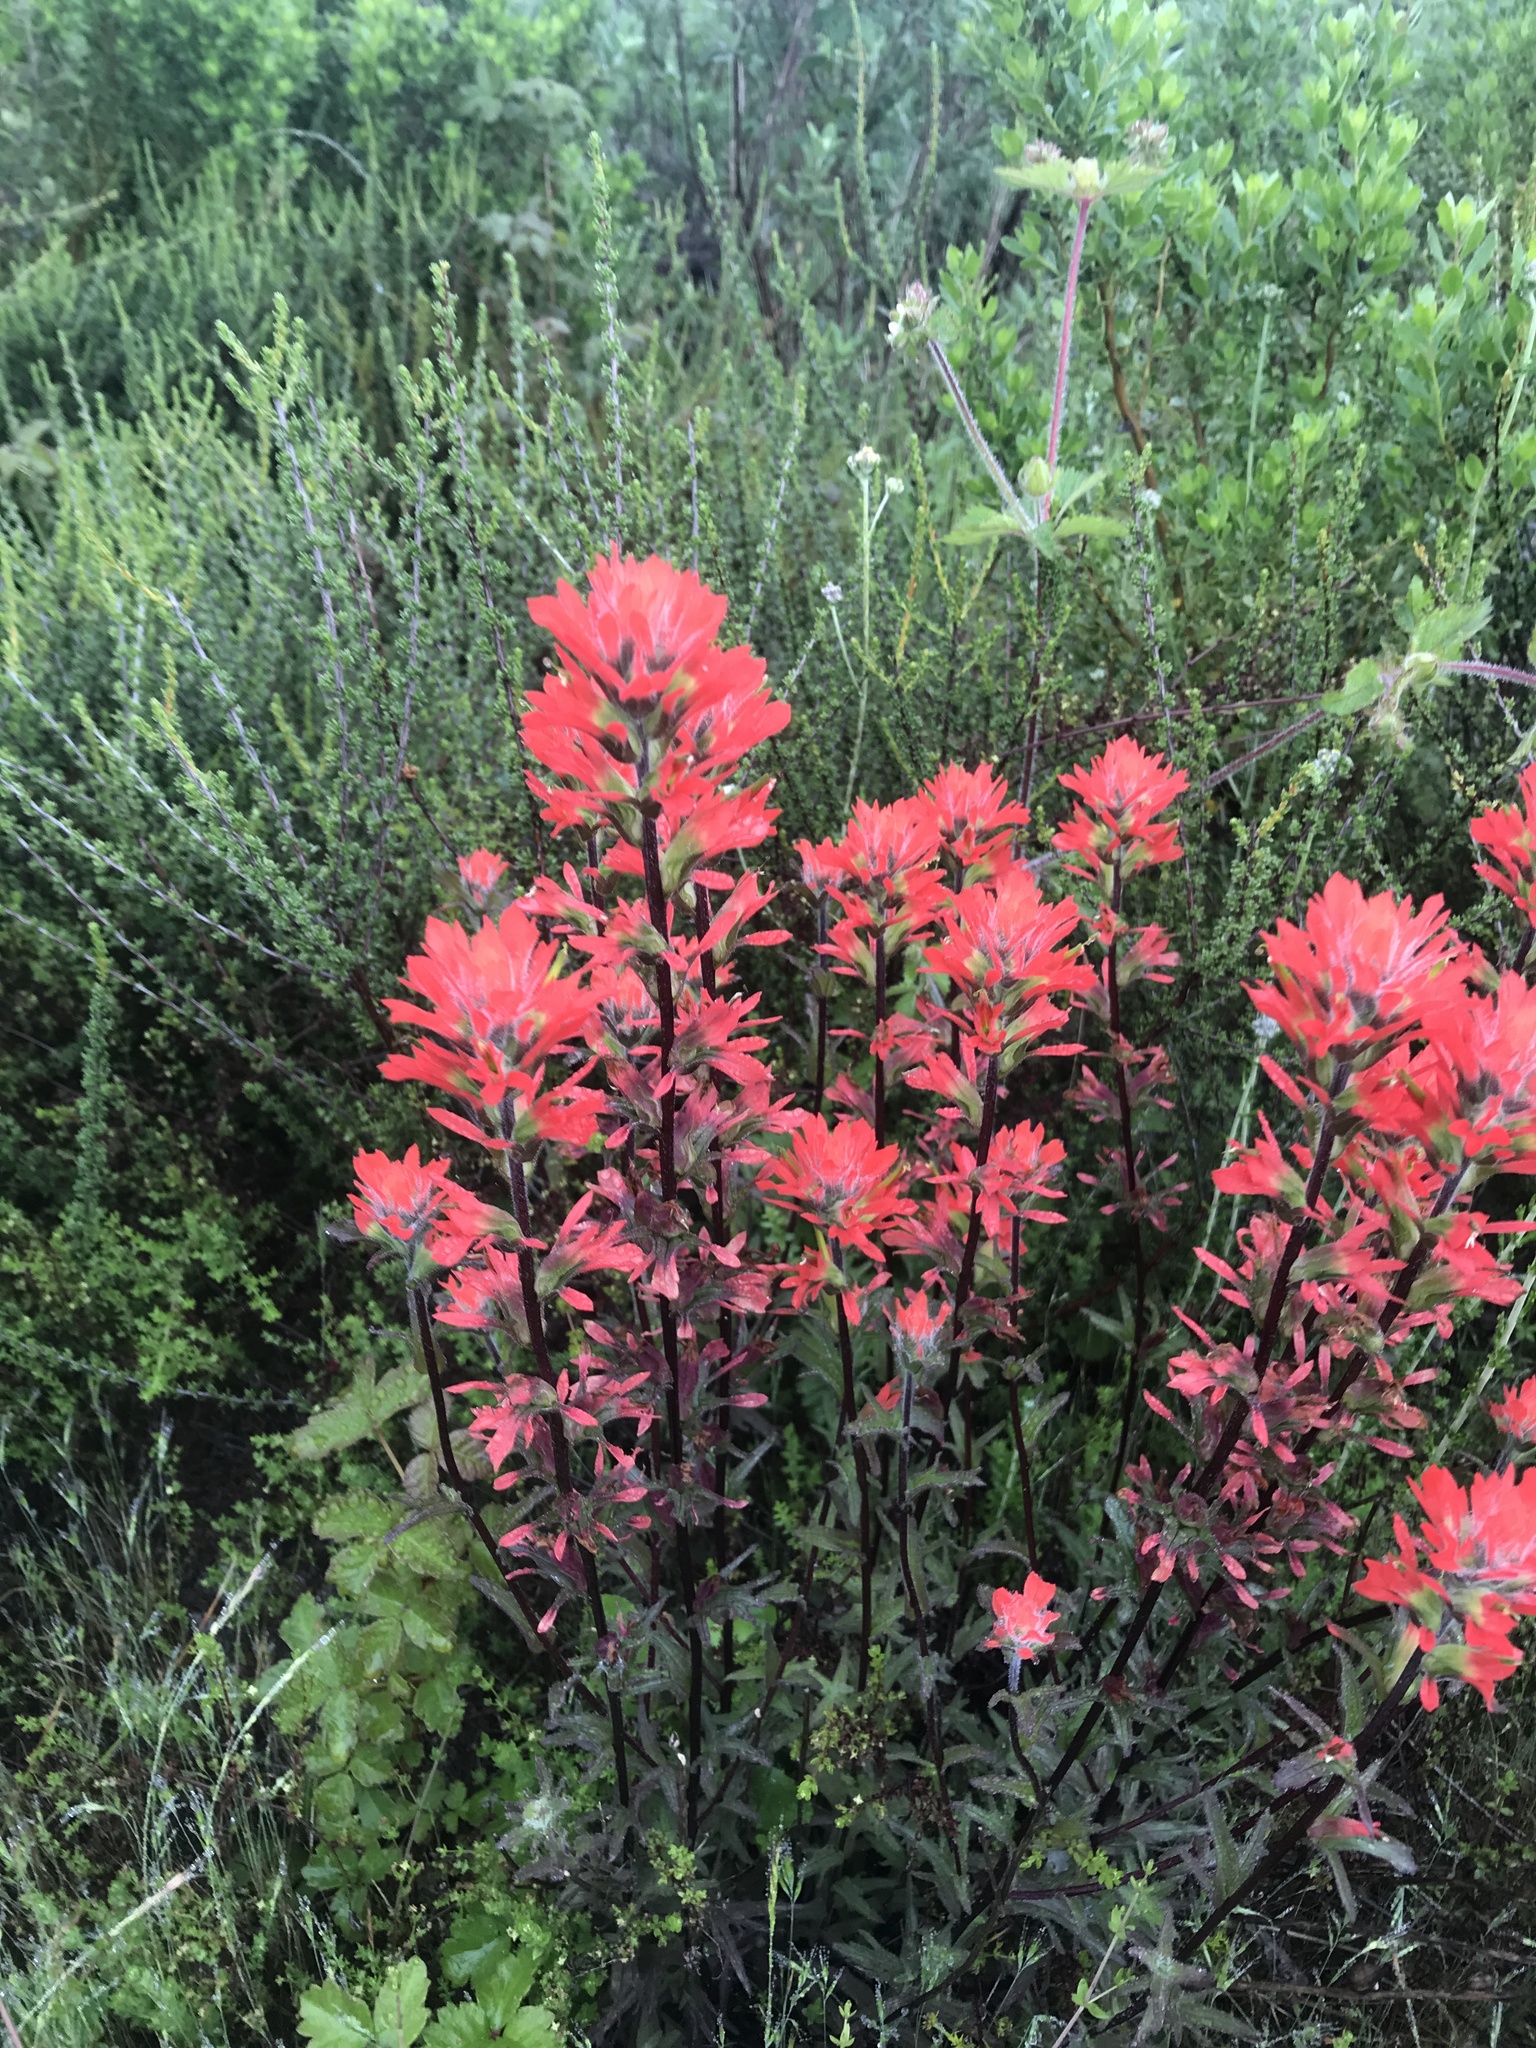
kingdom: Plantae
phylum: Tracheophyta
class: Magnoliopsida
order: Lamiales
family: Orobanchaceae
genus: Castilleja
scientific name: Castilleja affinis
